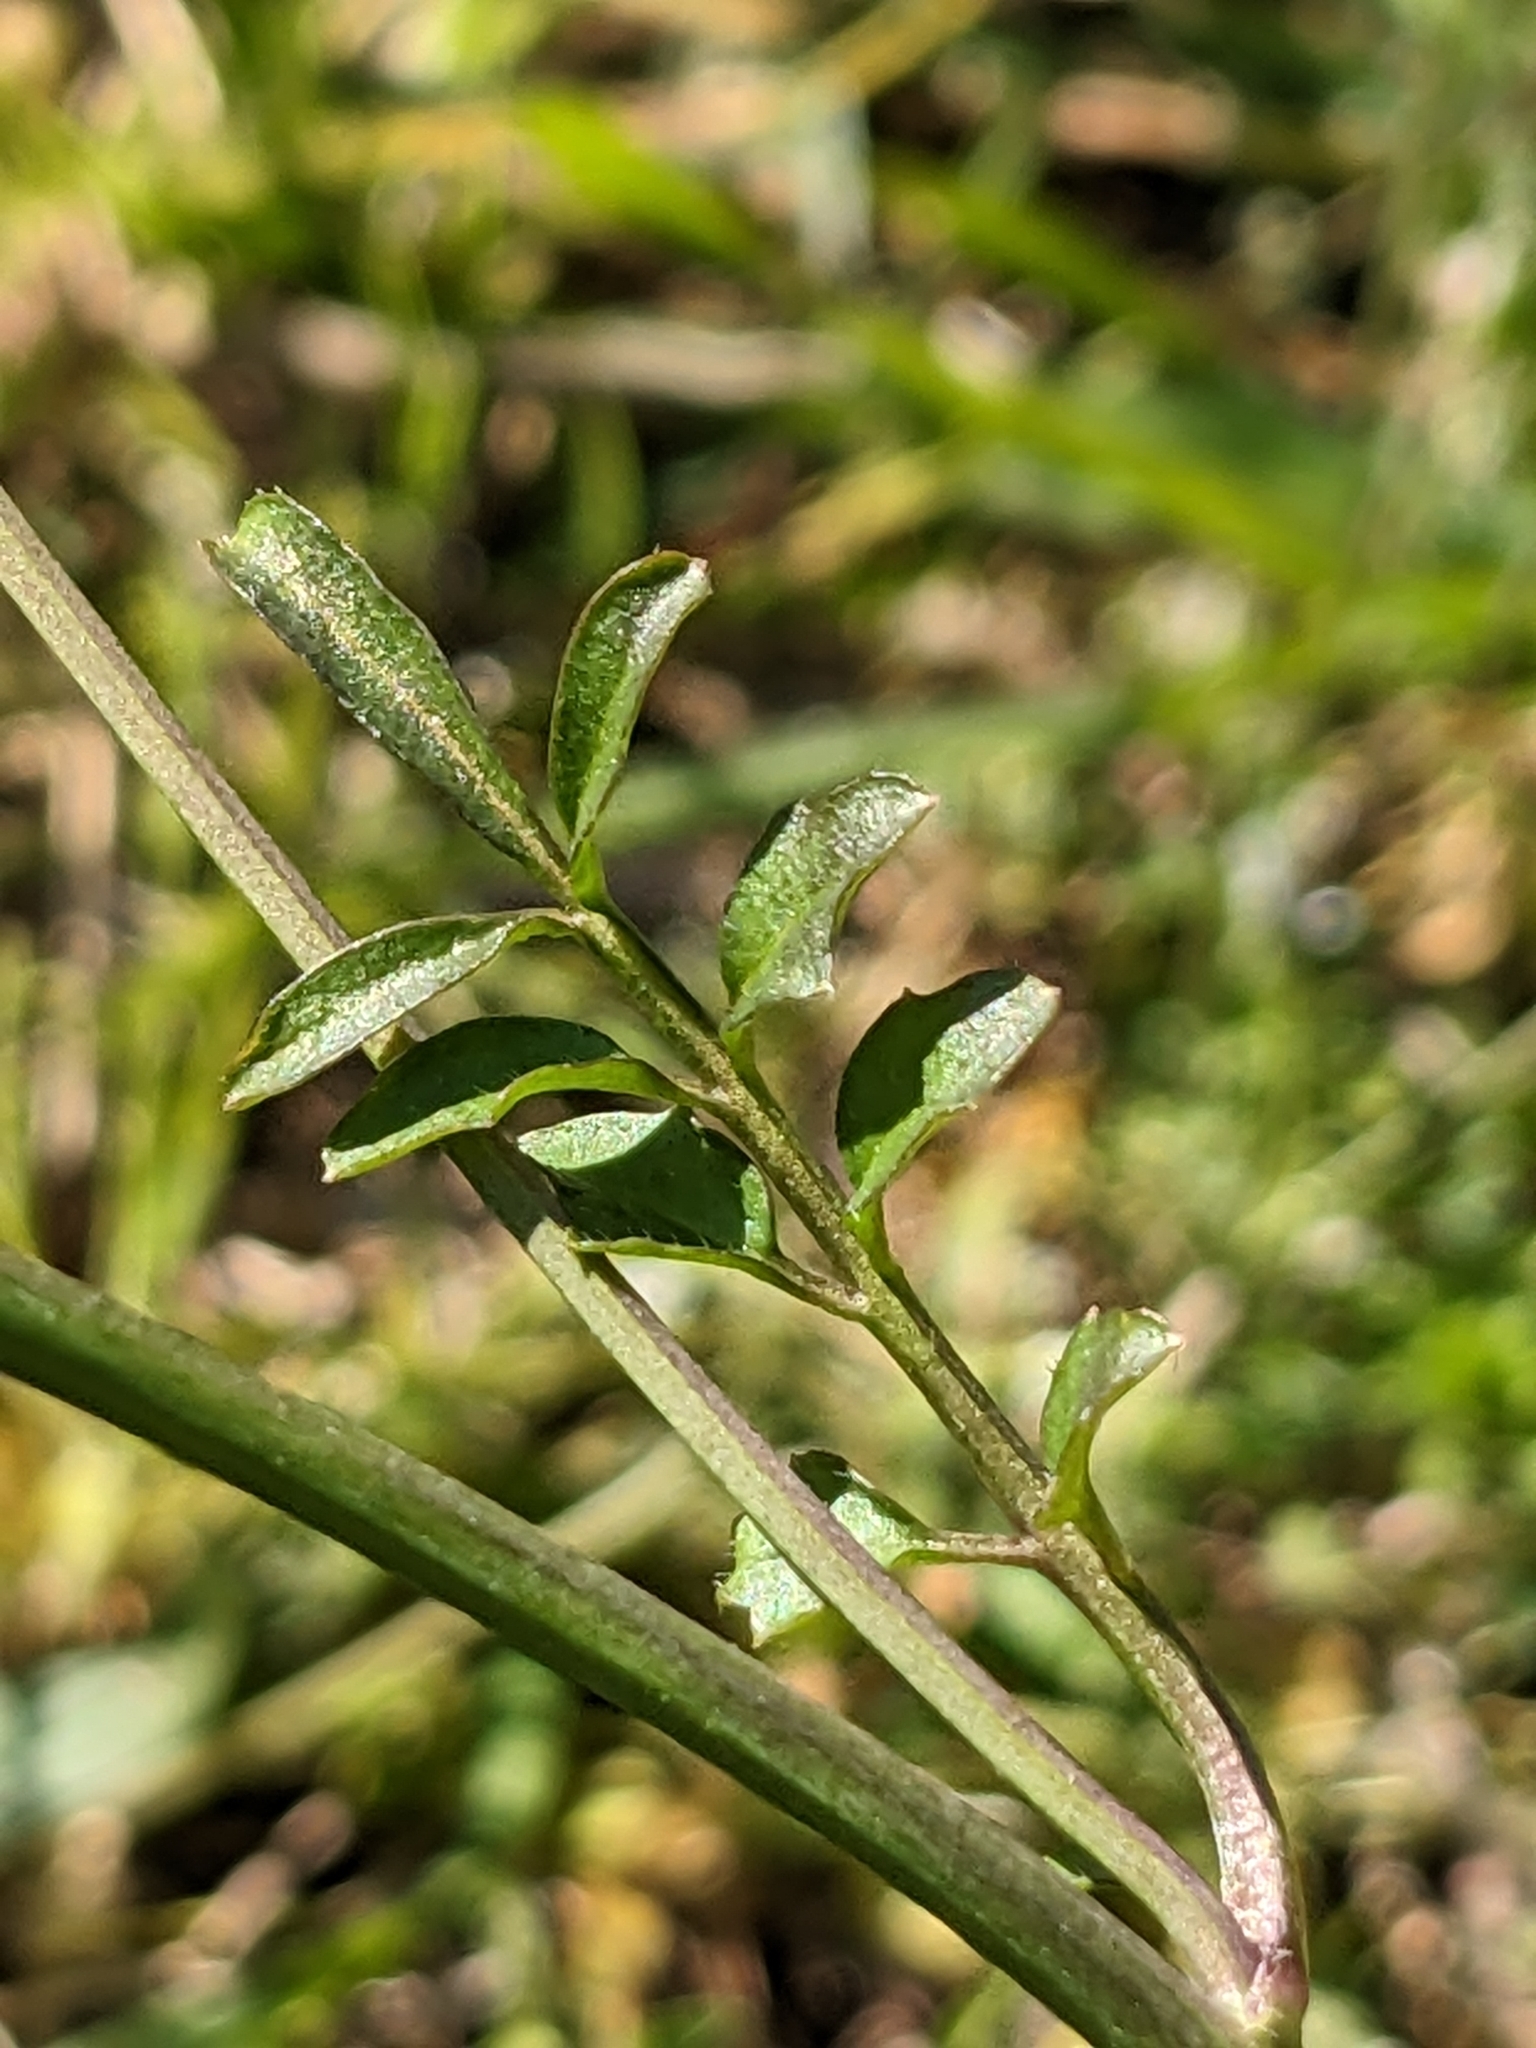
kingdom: Plantae
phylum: Tracheophyta
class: Magnoliopsida
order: Brassicales
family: Brassicaceae
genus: Cardamine
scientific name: Cardamine hirsuta
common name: Hairy bittercress
